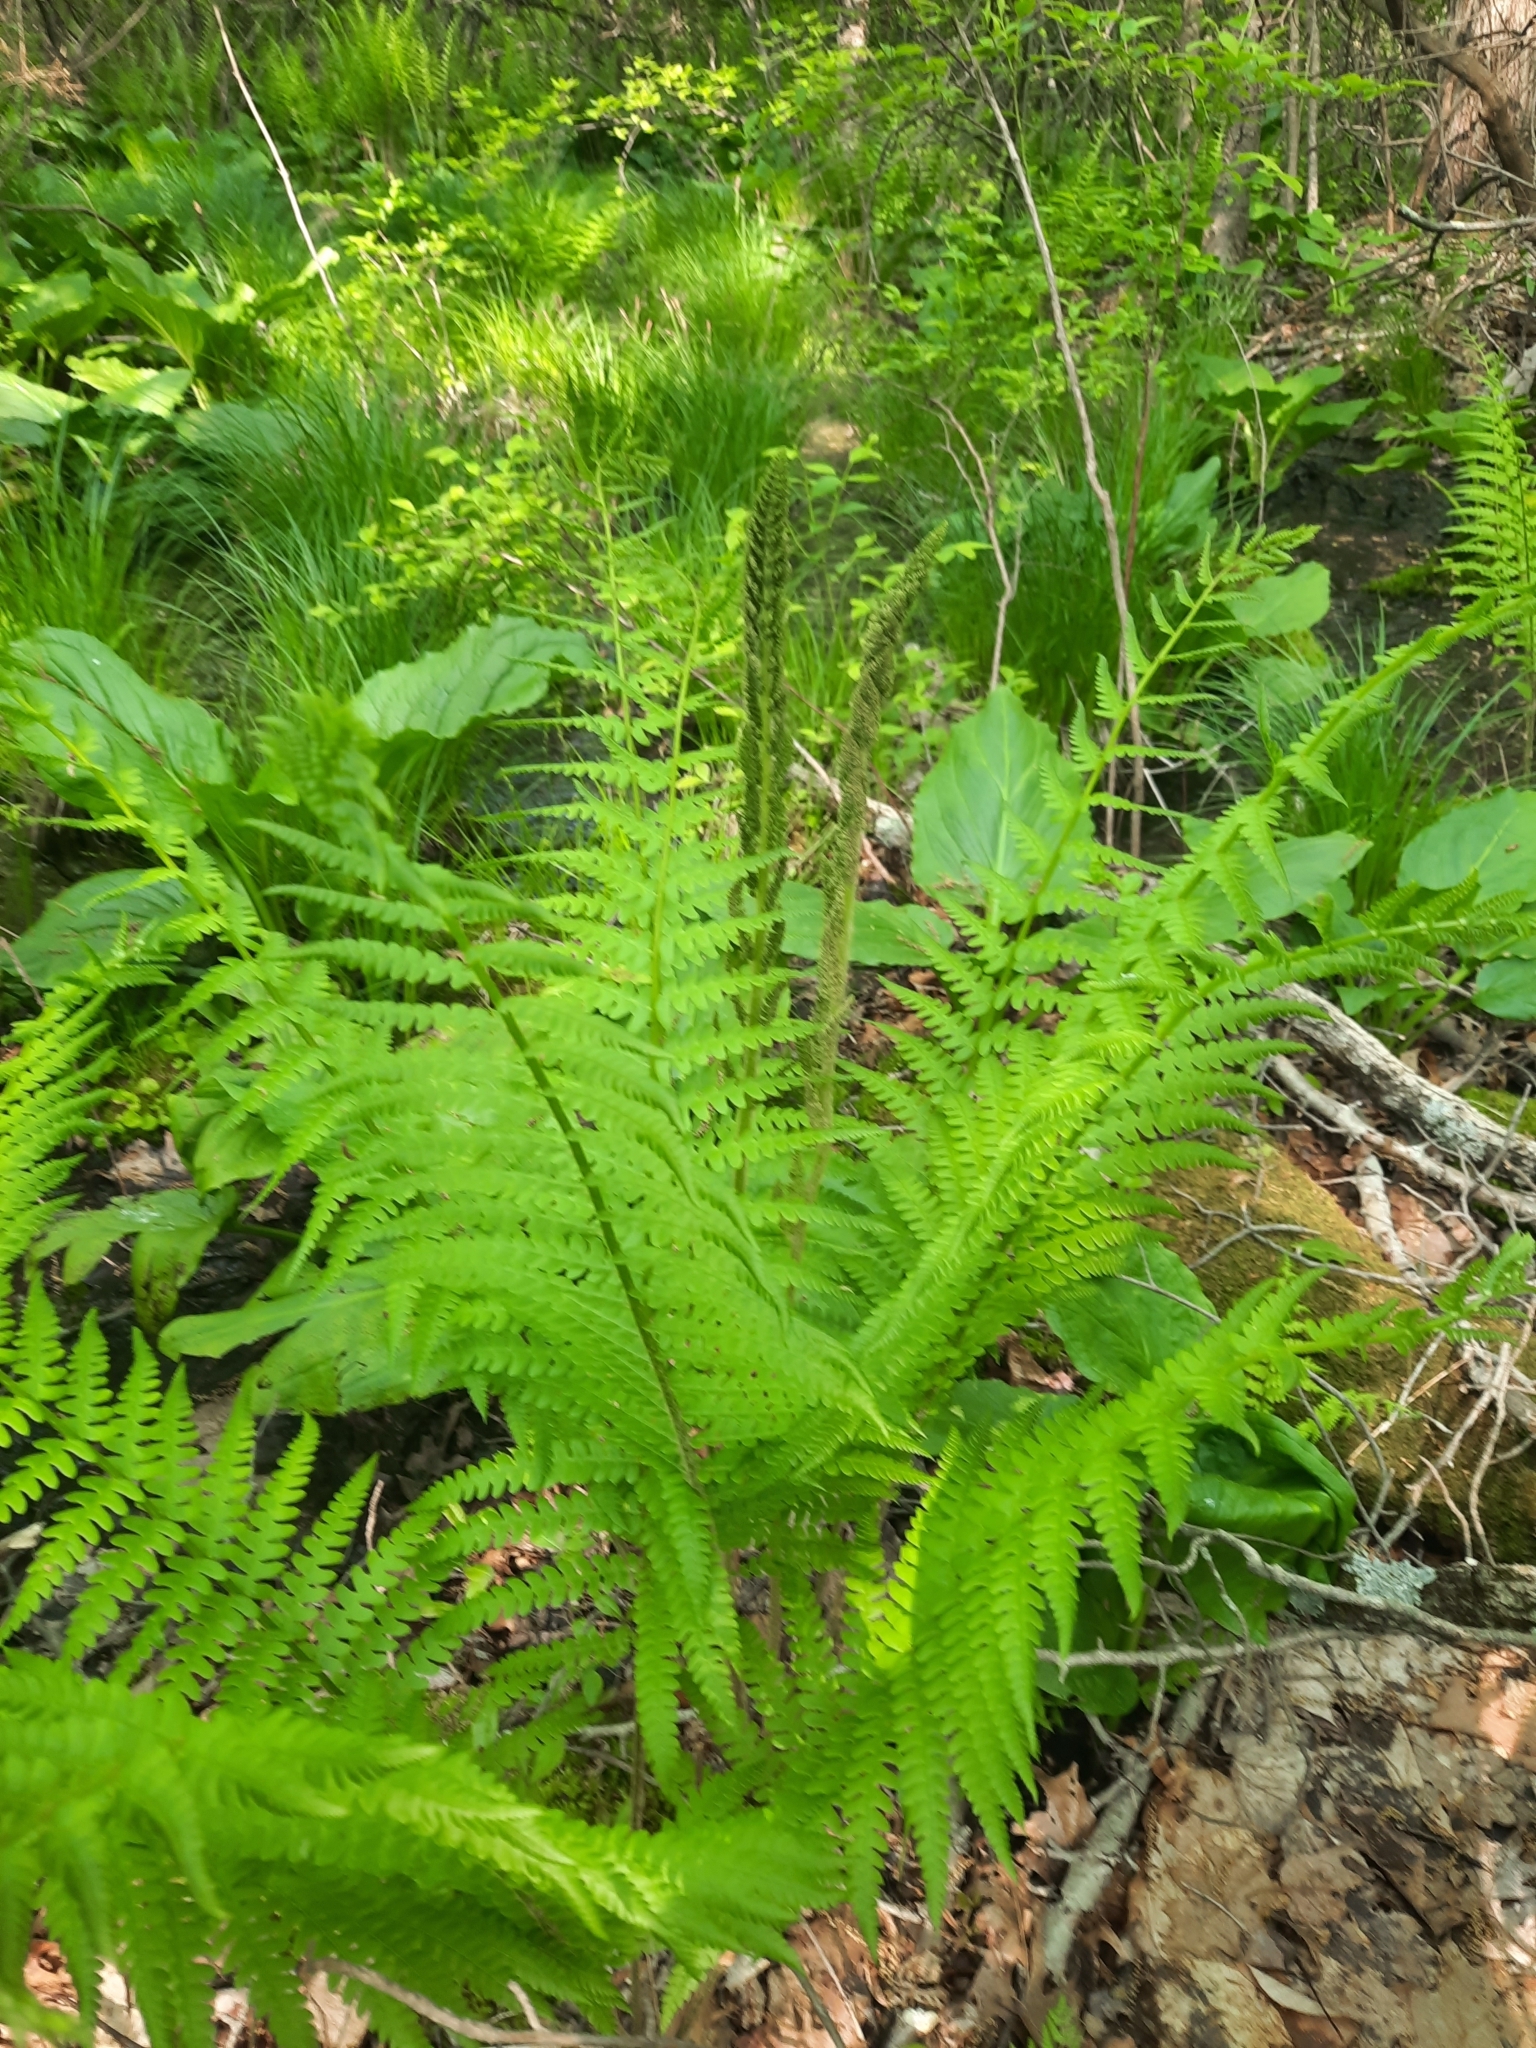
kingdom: Plantae
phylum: Tracheophyta
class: Polypodiopsida
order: Osmundales
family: Osmundaceae
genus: Osmundastrum
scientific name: Osmundastrum cinnamomeum
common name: Cinnamon fern
